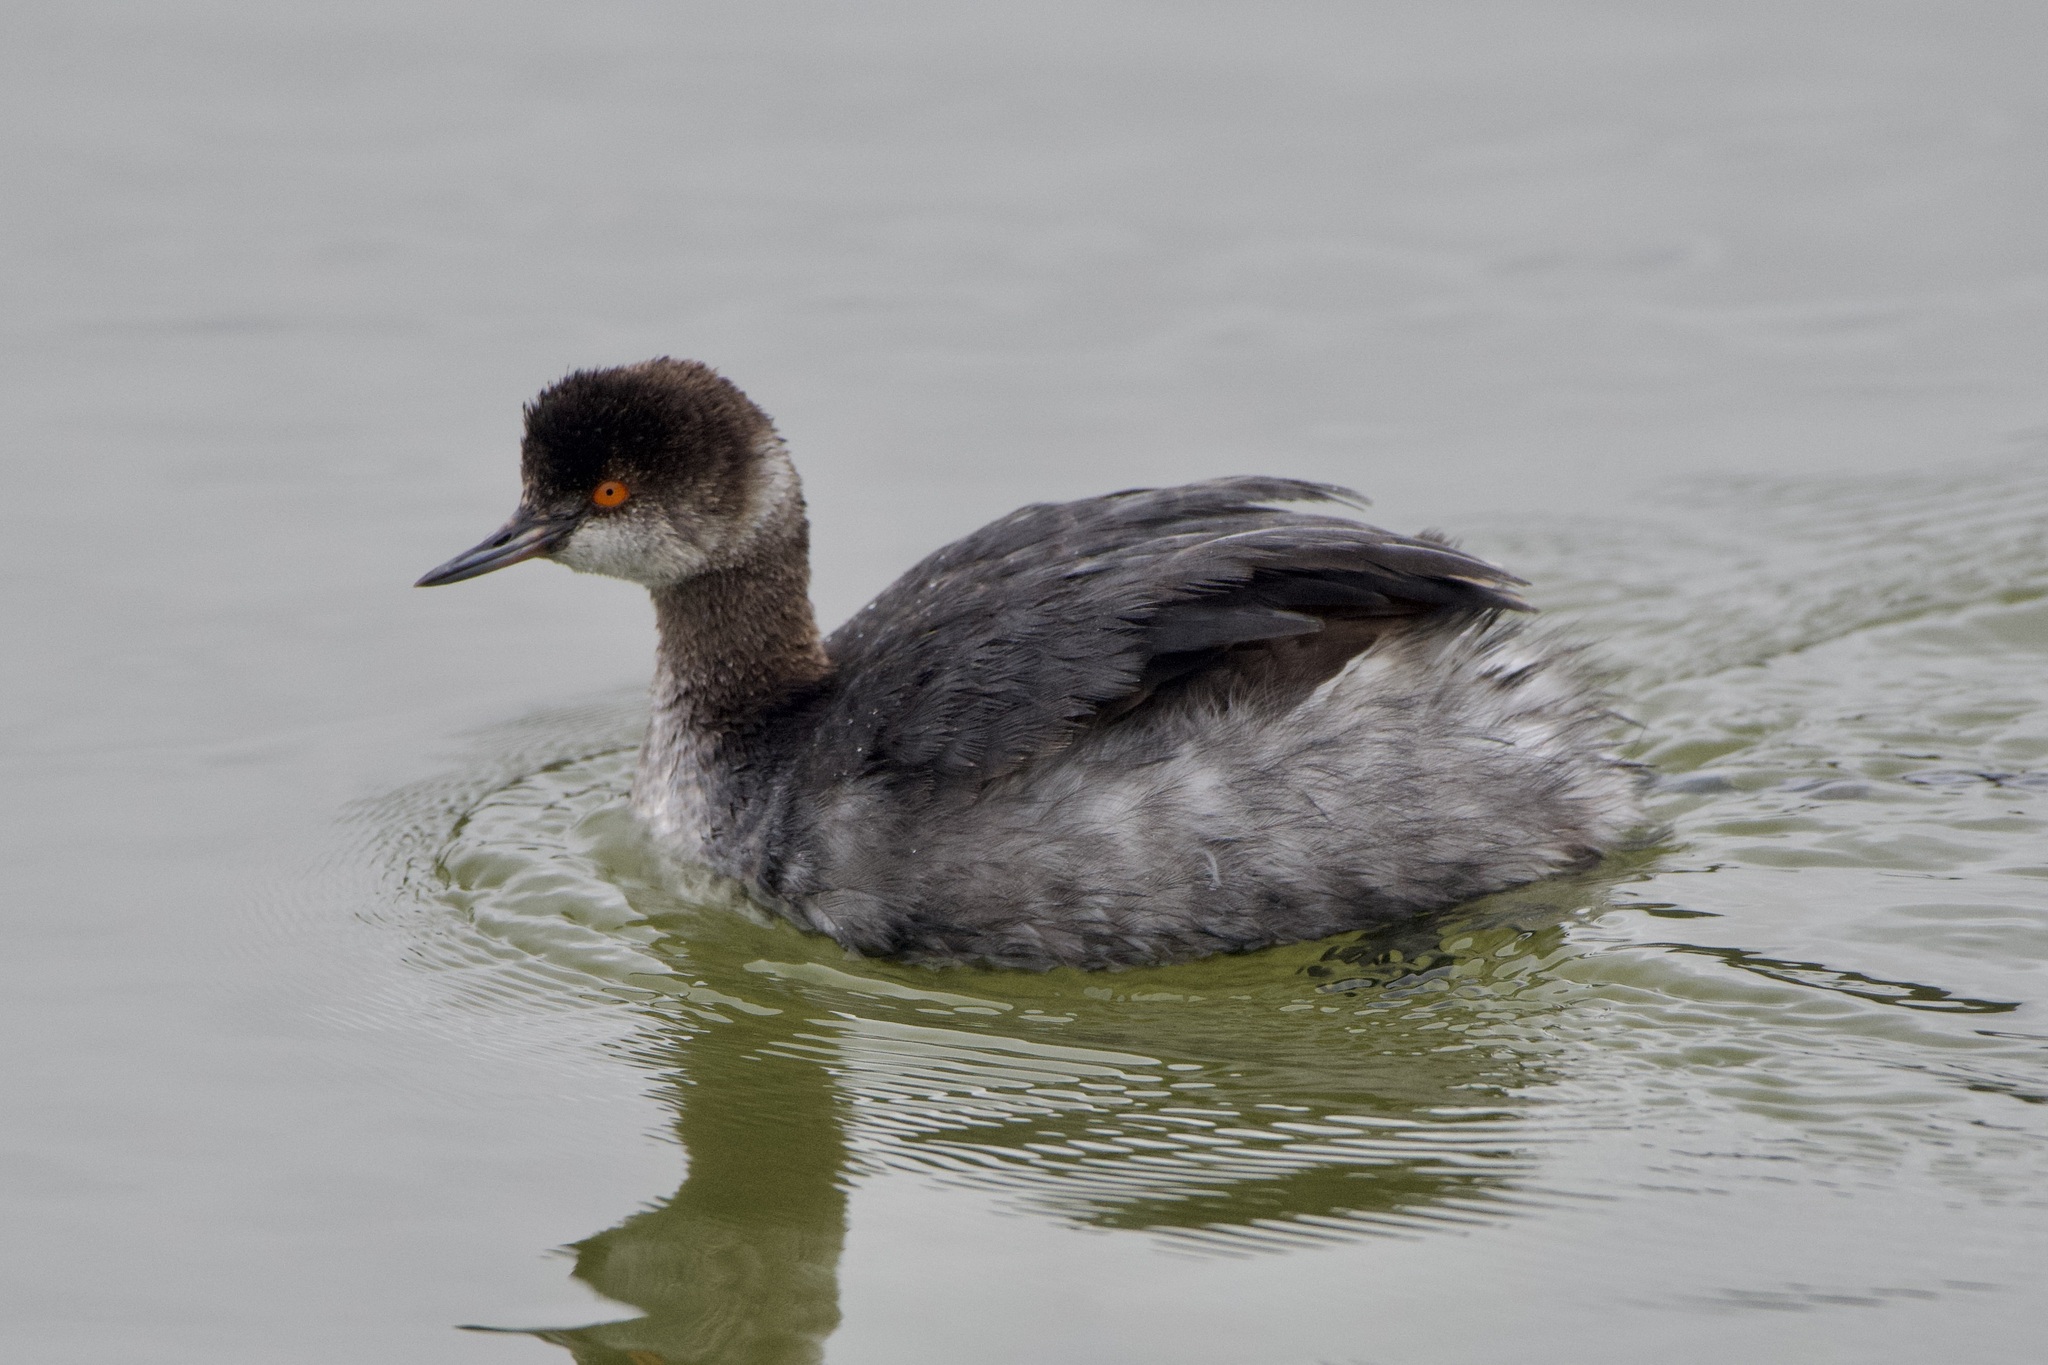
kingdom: Animalia
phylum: Chordata
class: Aves
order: Podicipediformes
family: Podicipedidae
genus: Podiceps
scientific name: Podiceps nigricollis
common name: Black-necked grebe
